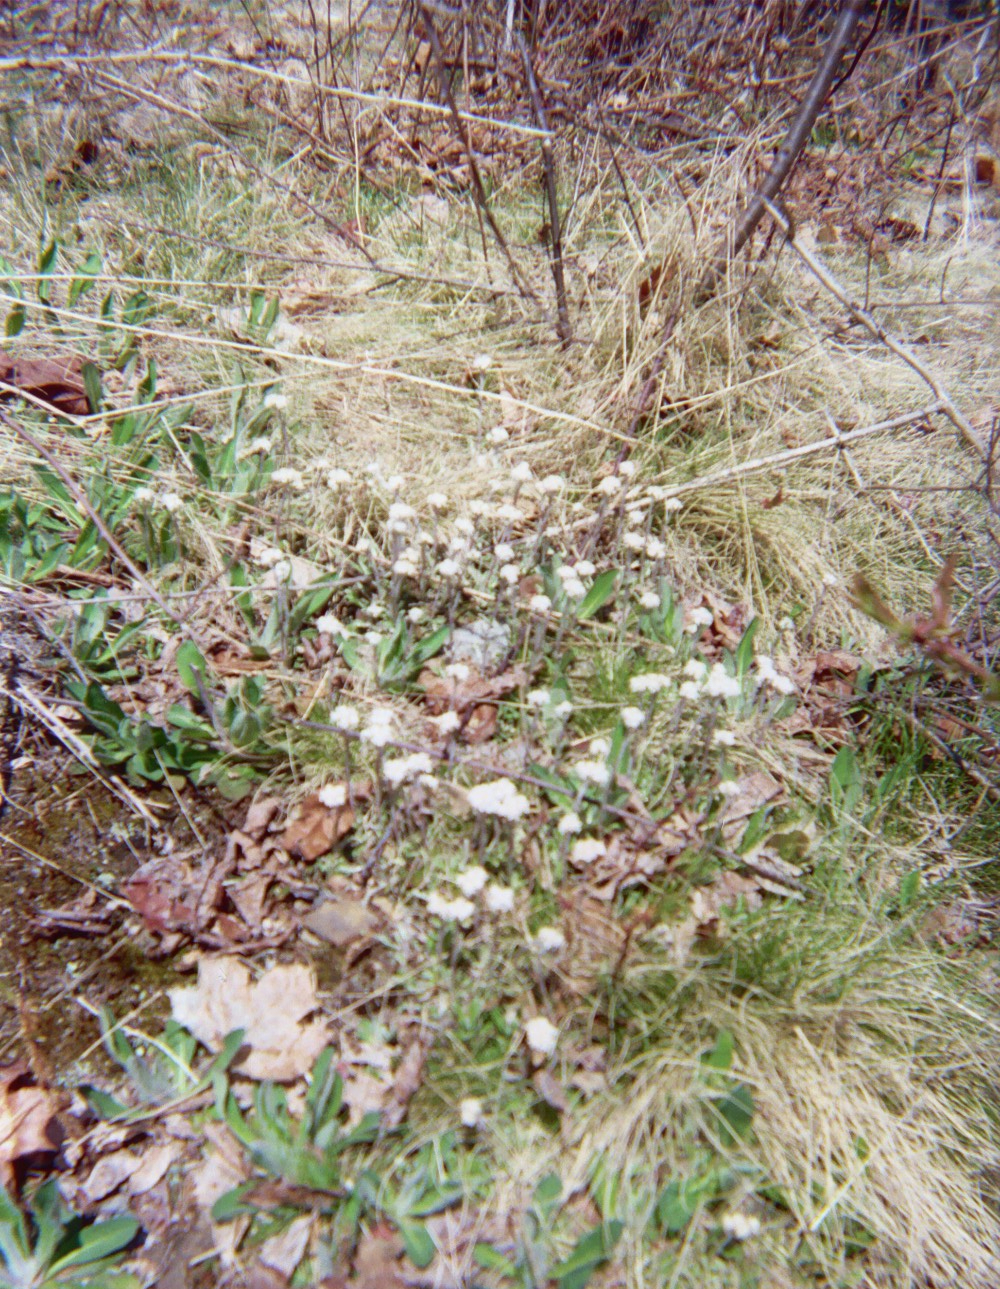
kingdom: Plantae
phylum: Tracheophyta
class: Magnoliopsida
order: Asterales
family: Asteraceae
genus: Antennaria
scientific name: Antennaria plantaginifolia
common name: Plantain-leaved pussytoes
